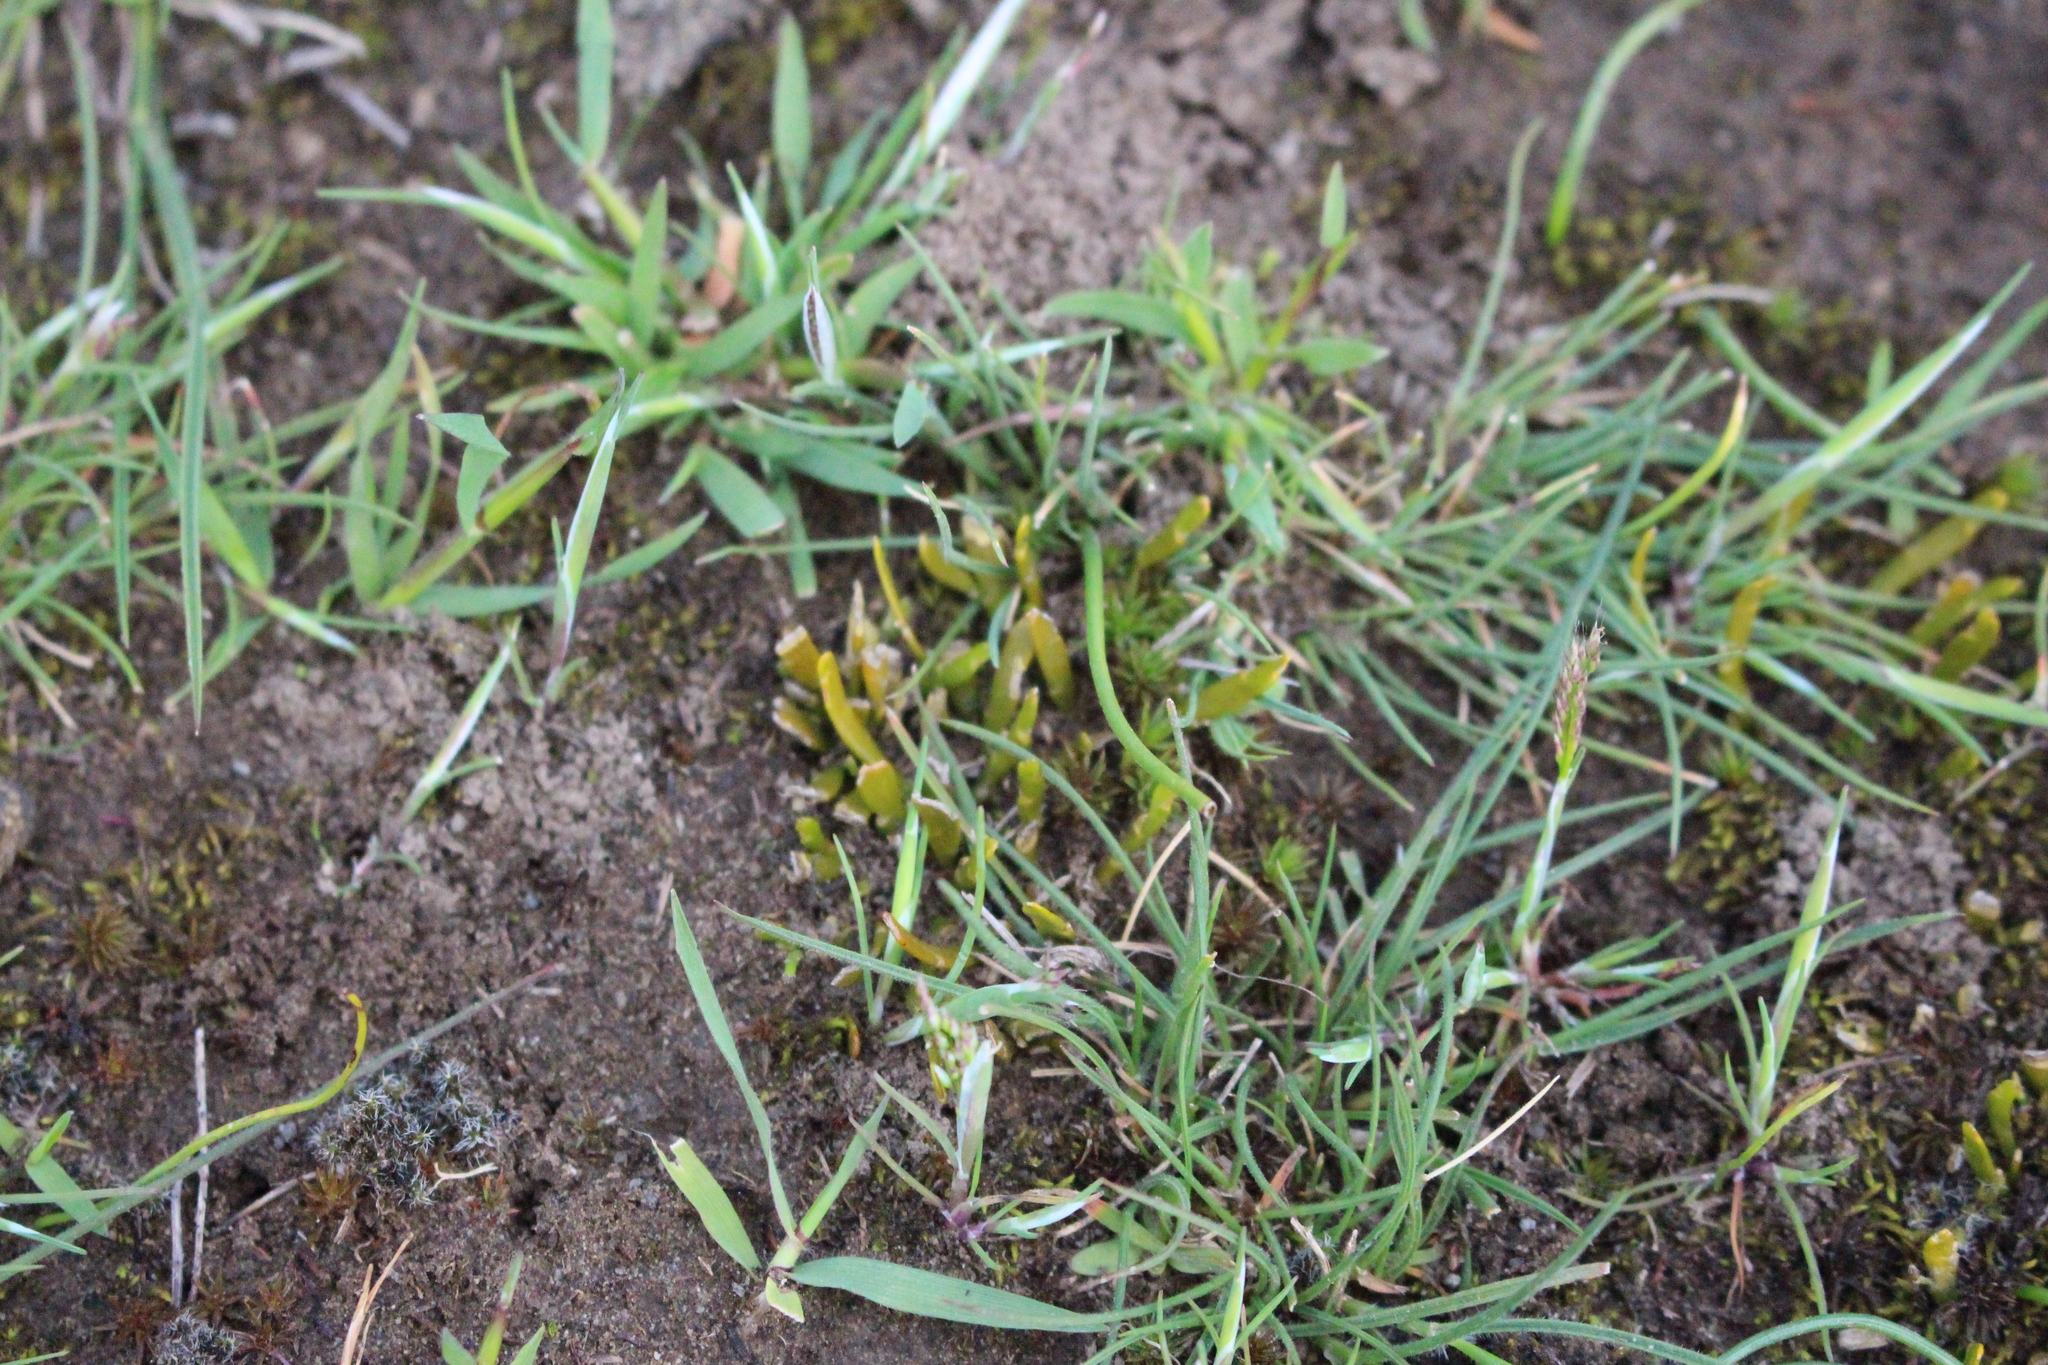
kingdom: Plantae
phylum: Tracheophyta
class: Magnoliopsida
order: Fabales
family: Fabaceae
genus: Carmichaelia
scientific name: Carmichaelia corrugata
